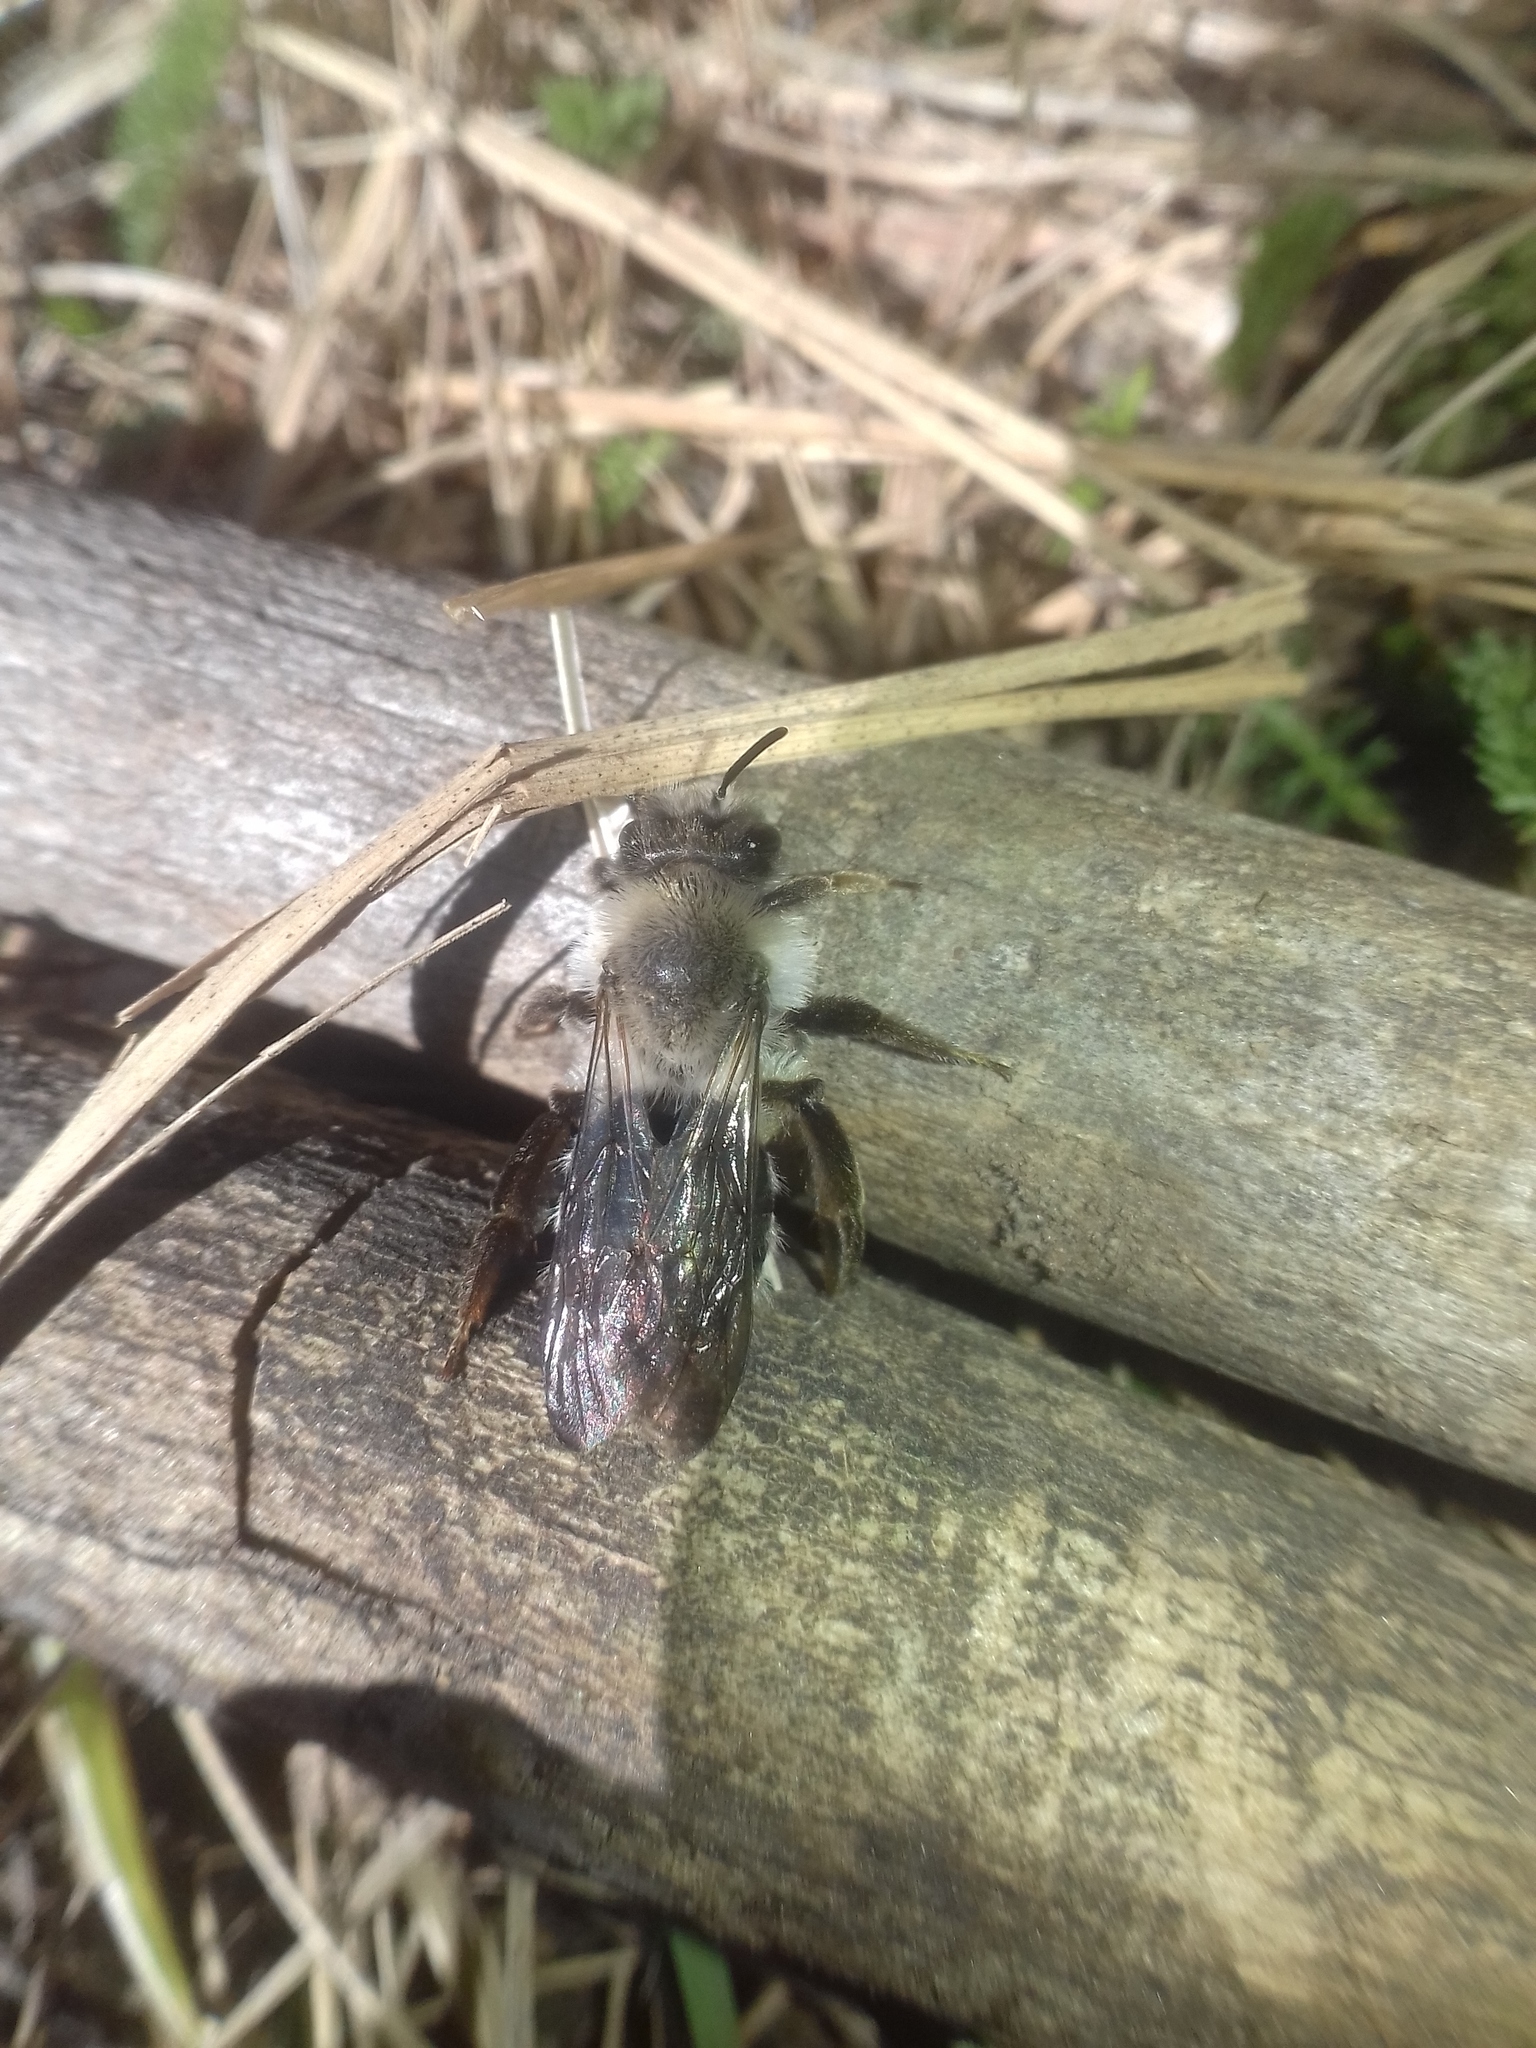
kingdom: Animalia
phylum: Arthropoda
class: Insecta
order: Hymenoptera
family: Andrenidae
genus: Andrena
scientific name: Andrena vaga
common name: Grey-backed mining bee
